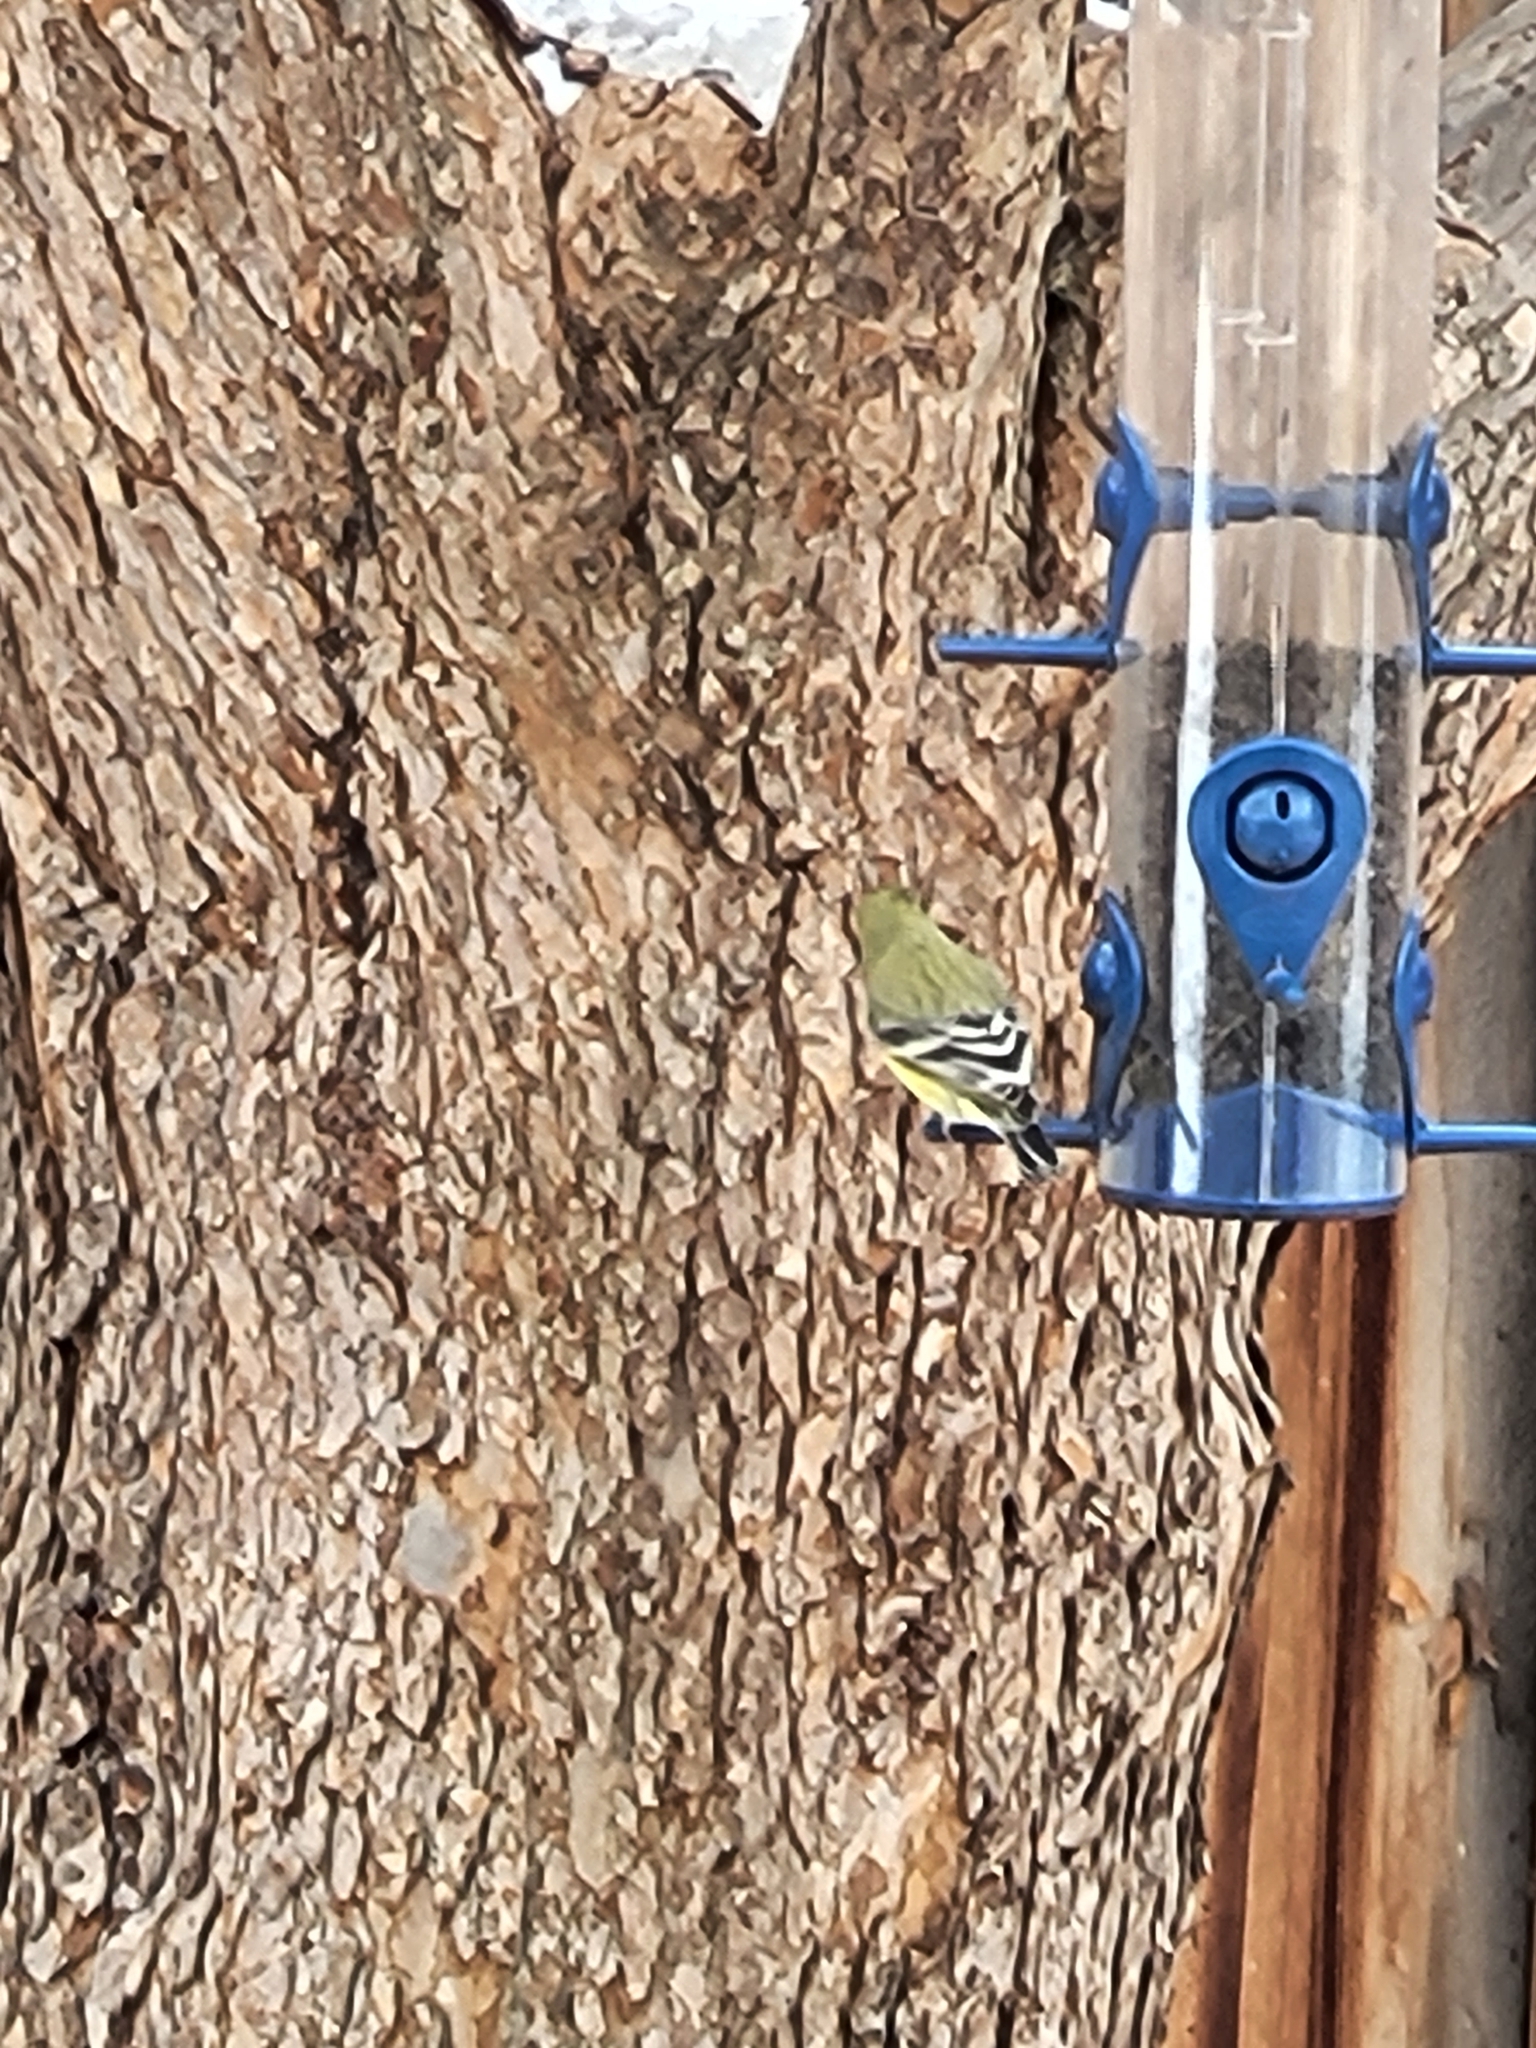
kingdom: Animalia
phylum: Chordata
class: Aves
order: Passeriformes
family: Fringillidae
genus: Spinus
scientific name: Spinus psaltria
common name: Lesser goldfinch
